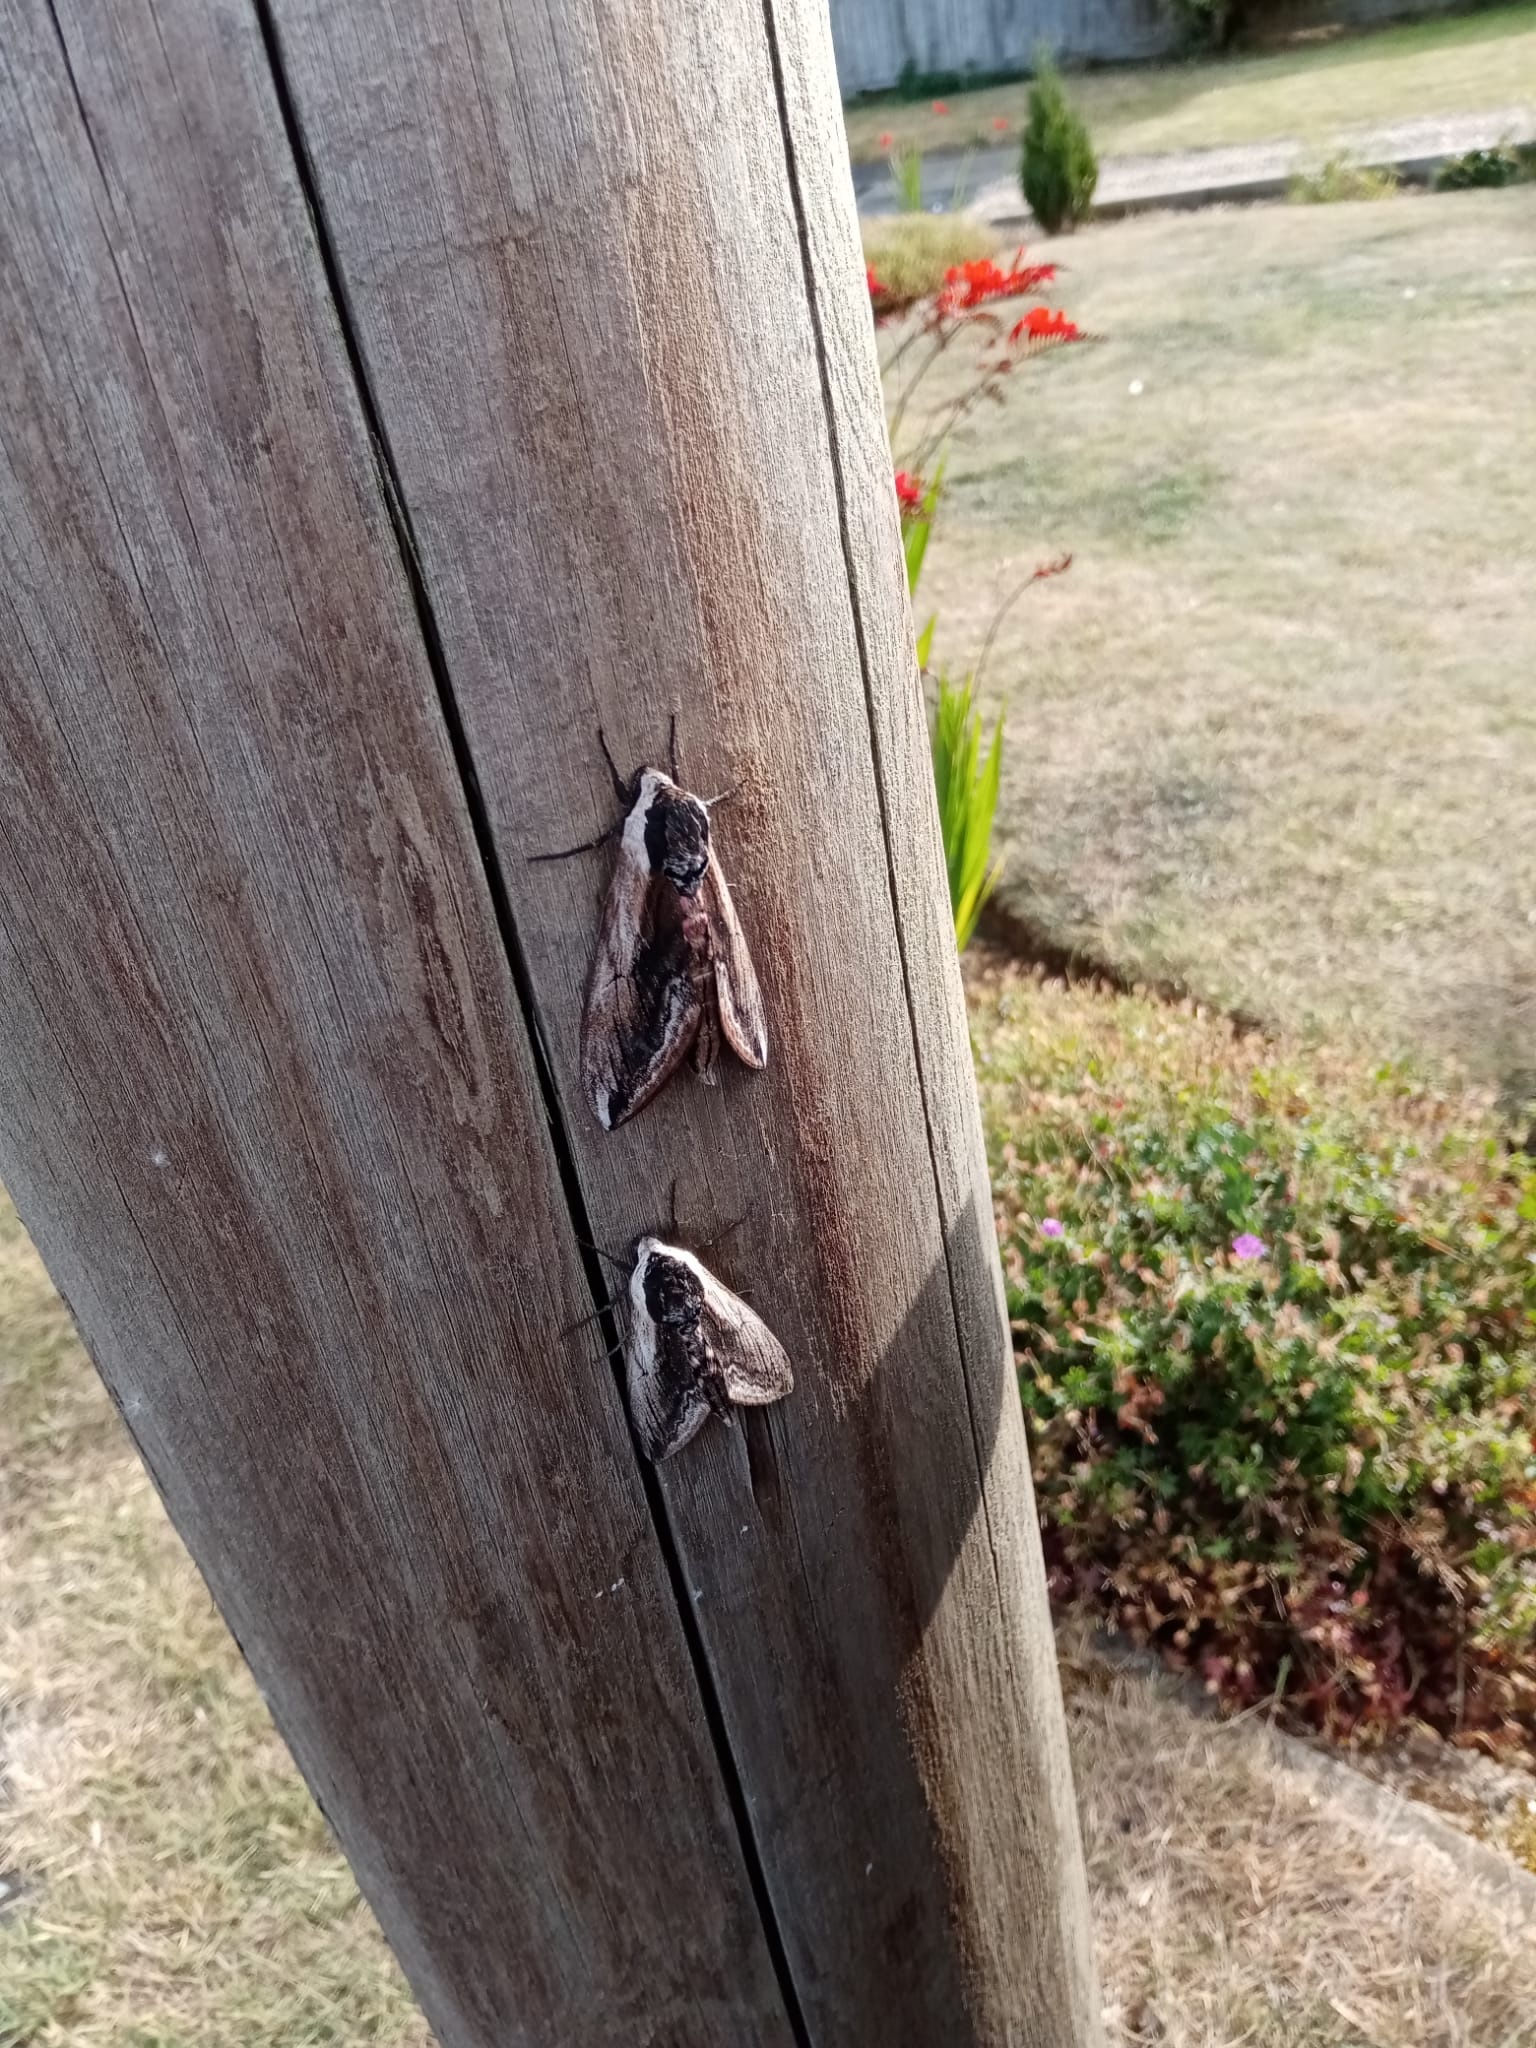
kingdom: Animalia
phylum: Arthropoda
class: Insecta
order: Lepidoptera
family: Sphingidae
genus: Sphinx
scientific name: Sphinx ligustri
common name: Privet hawk-moth
